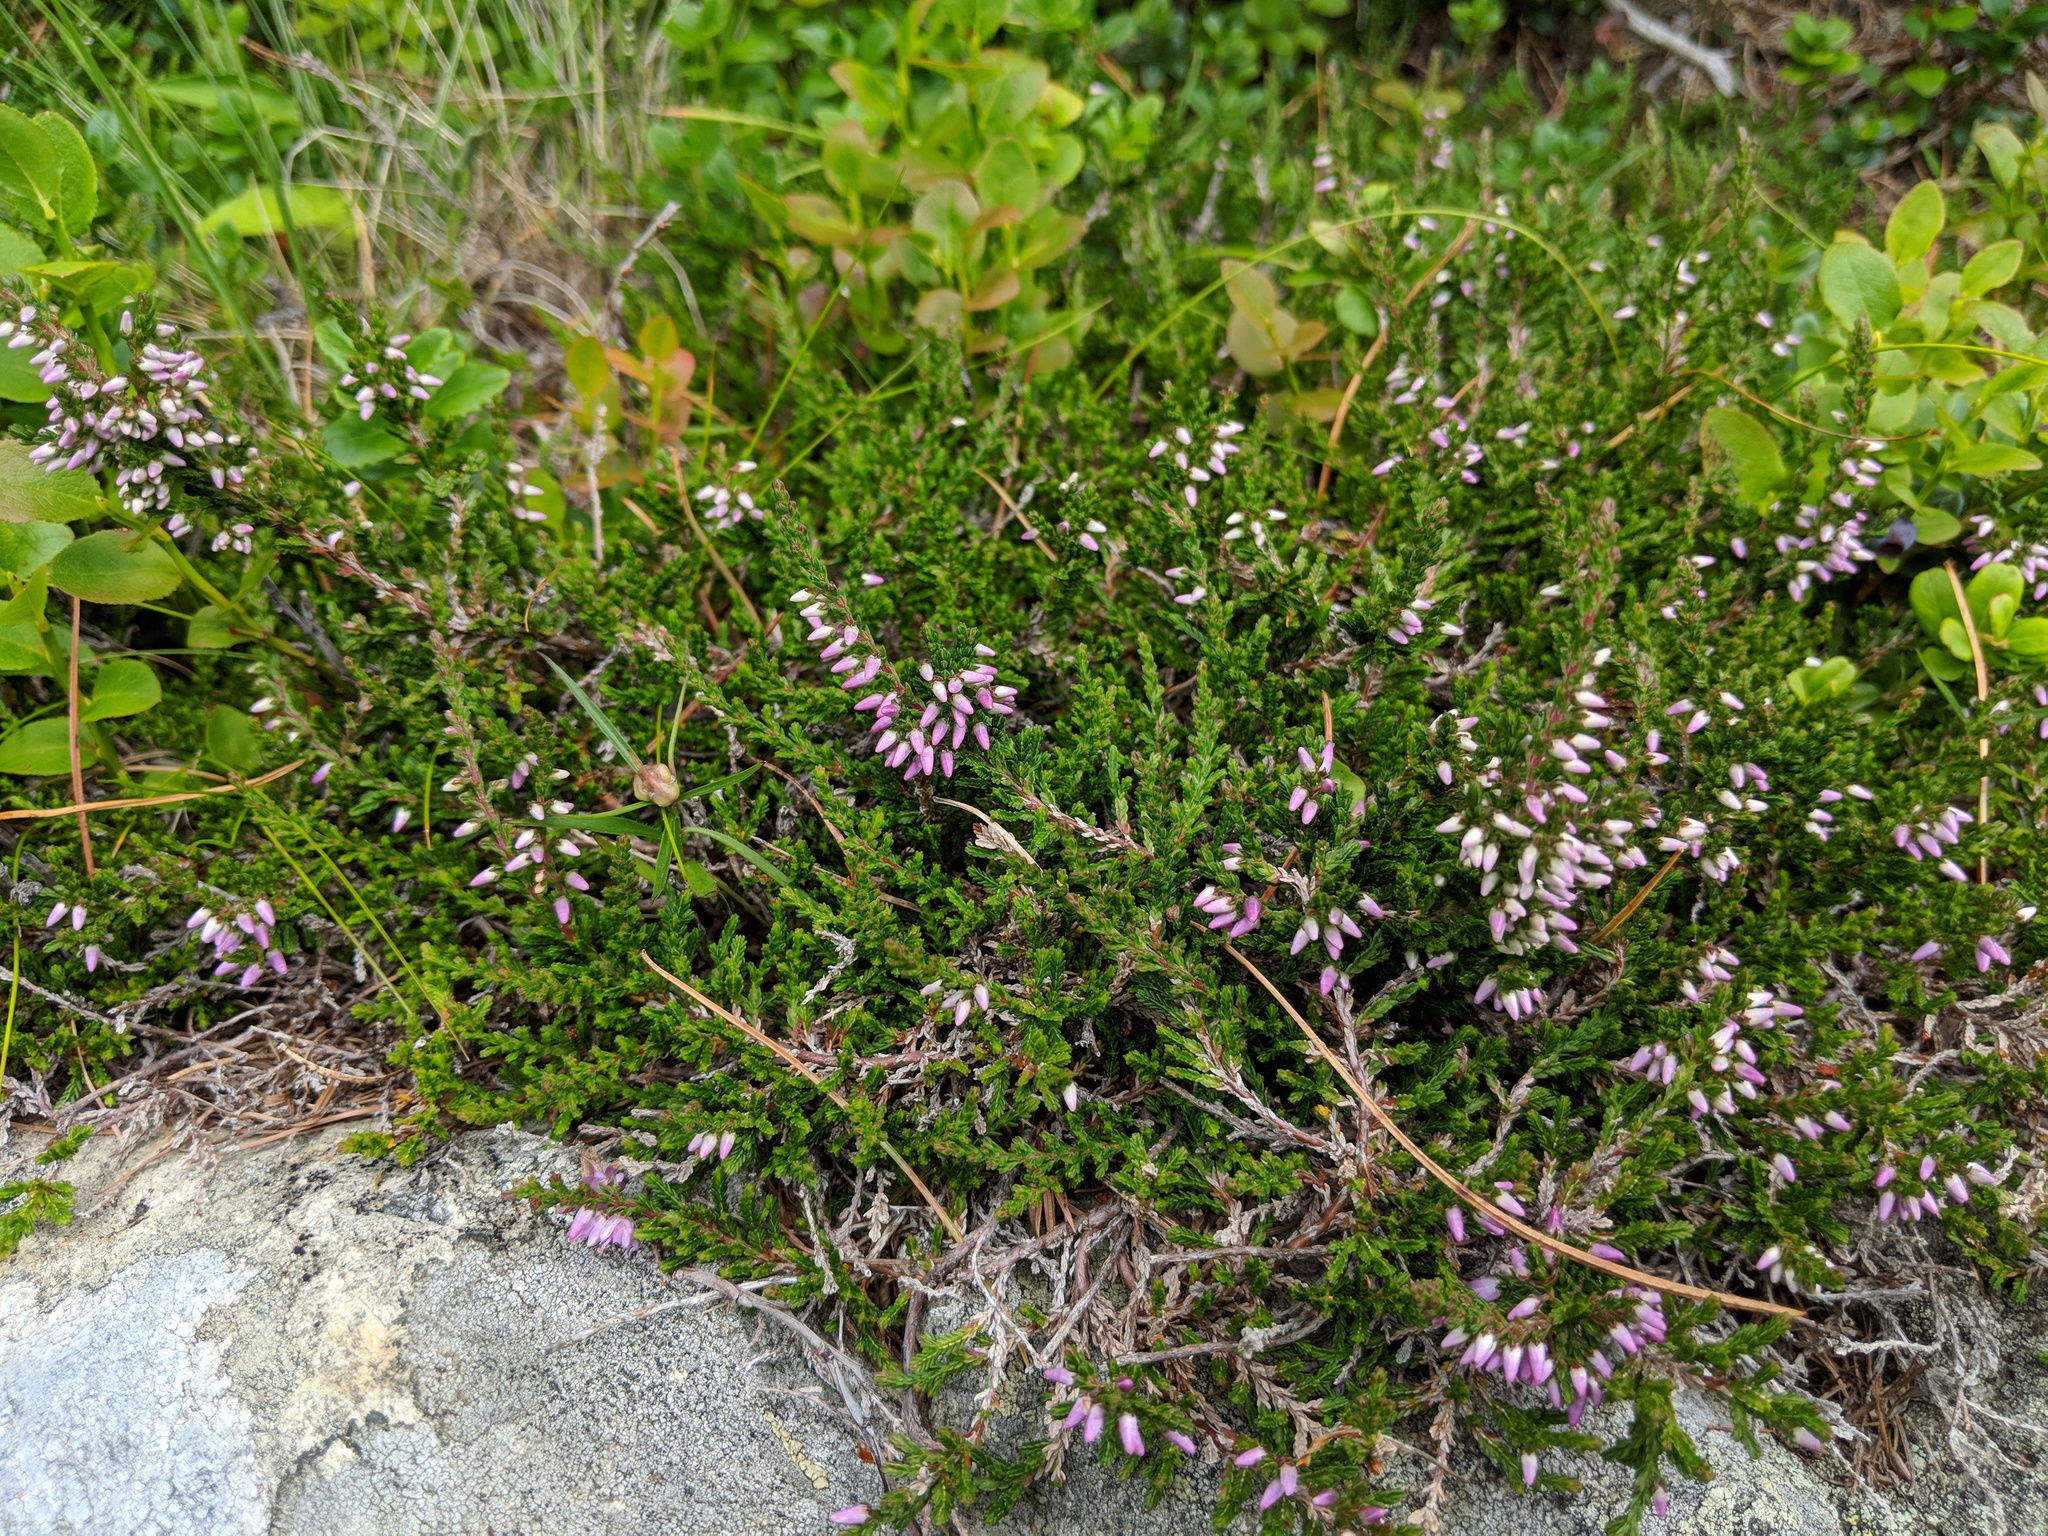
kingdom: Plantae
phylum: Tracheophyta
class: Magnoliopsida
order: Ericales
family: Ericaceae
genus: Calluna
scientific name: Calluna vulgaris
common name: Heather
